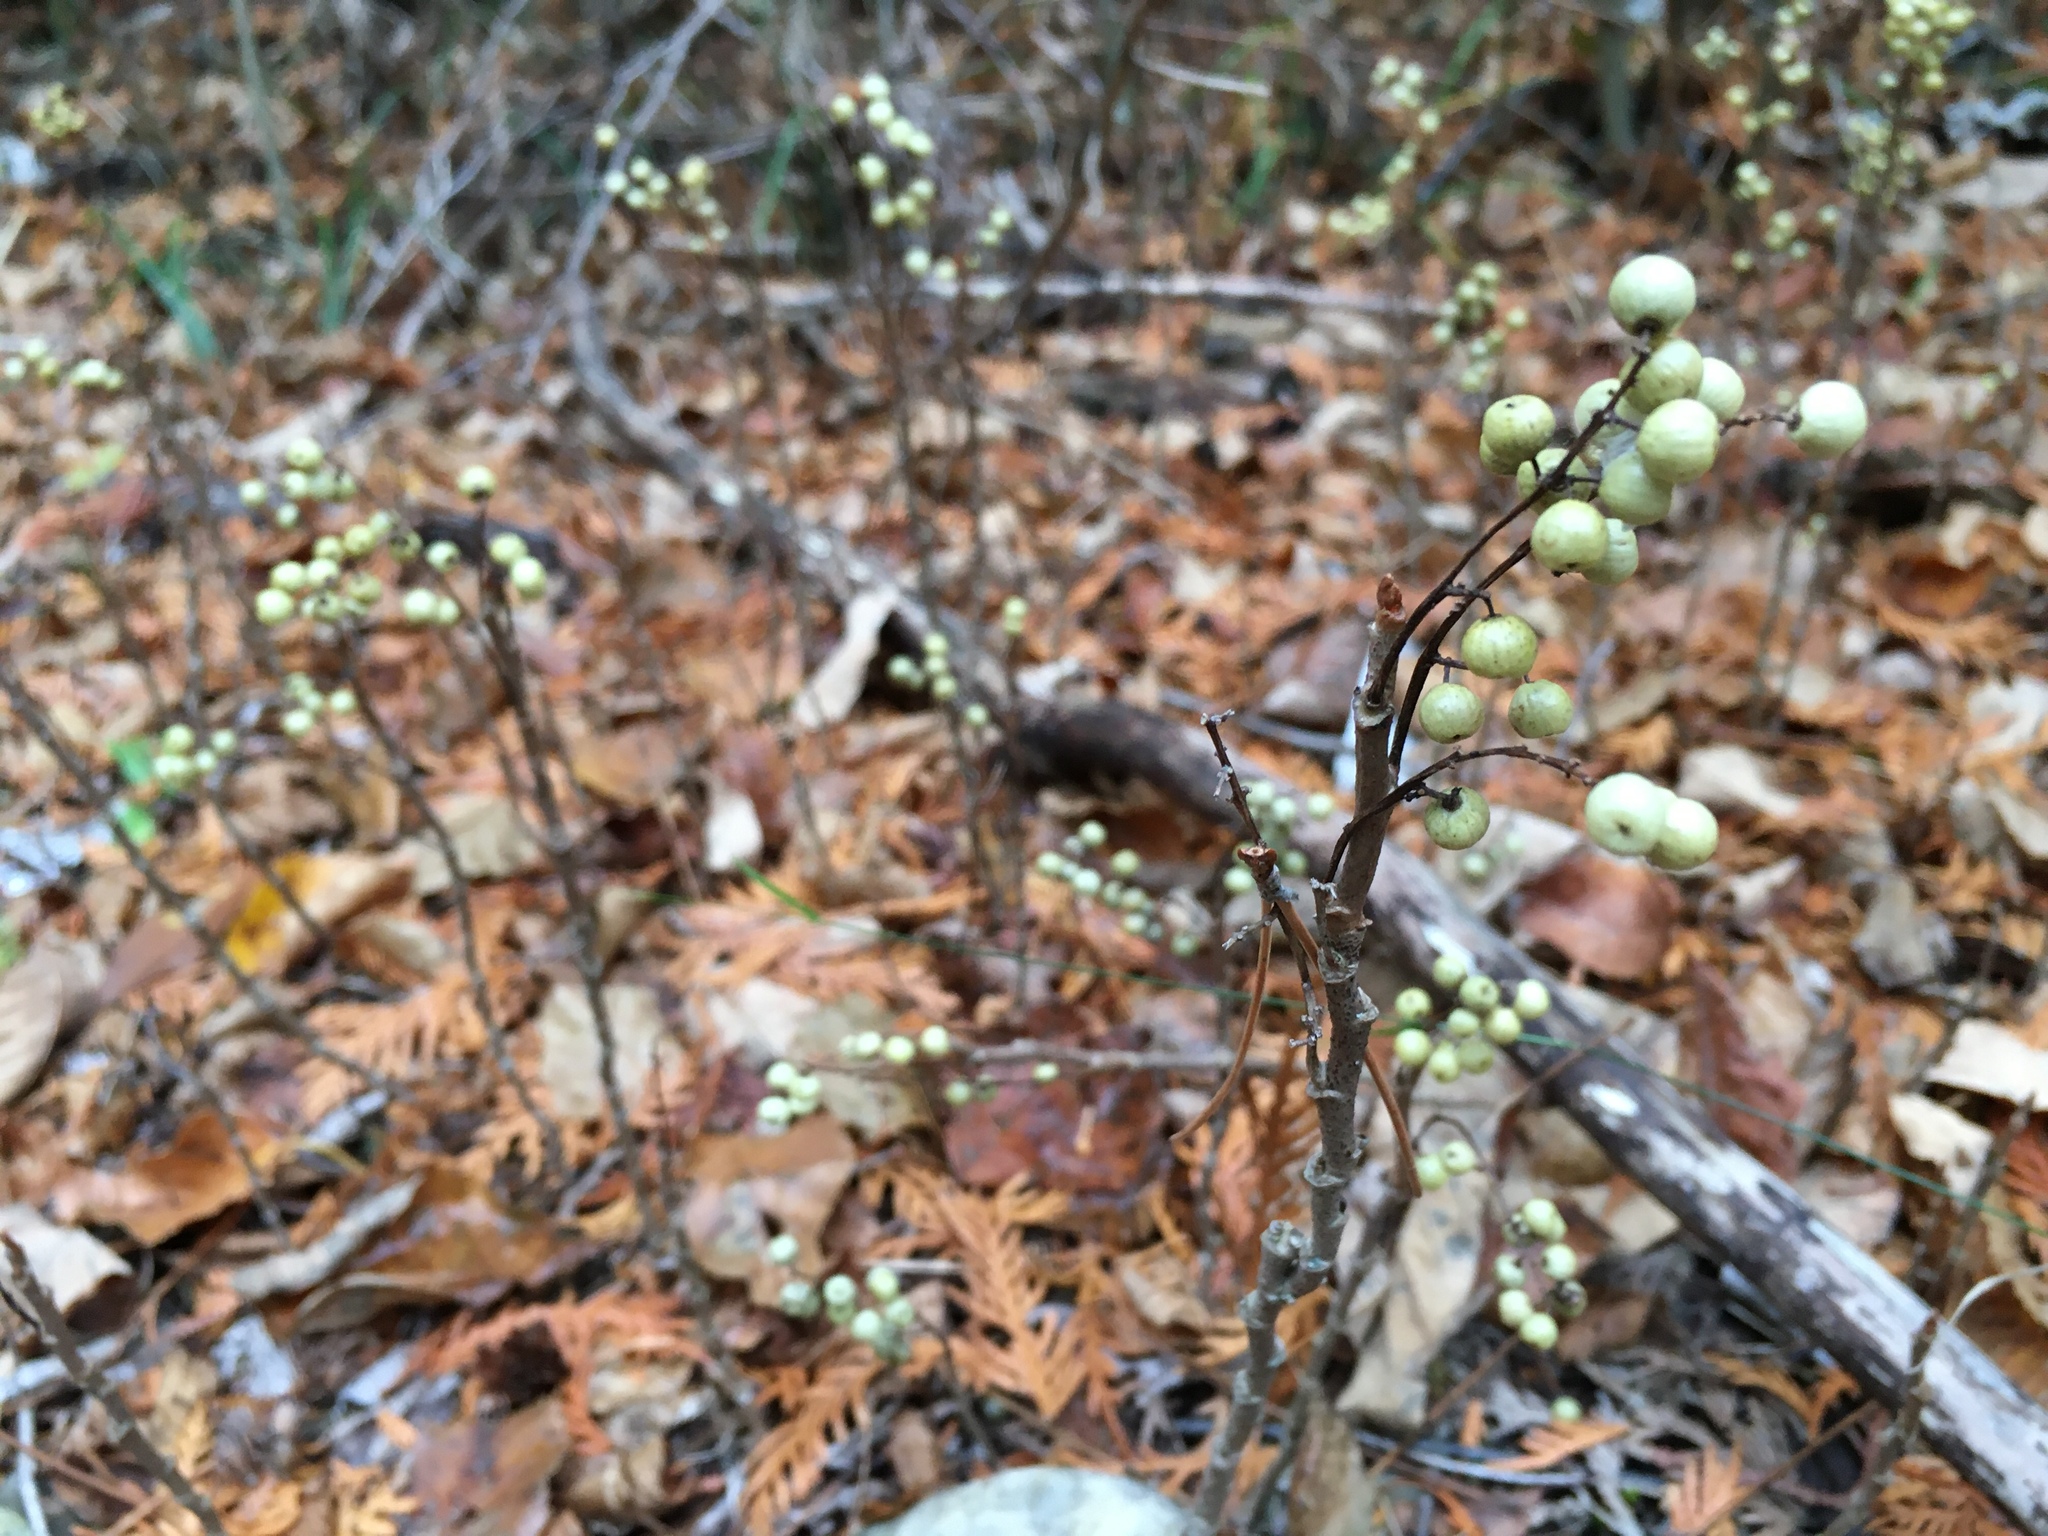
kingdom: Plantae
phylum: Tracheophyta
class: Magnoliopsida
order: Sapindales
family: Anacardiaceae
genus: Toxicodendron
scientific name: Toxicodendron rydbergii
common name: Rydberg's poison-ivy
